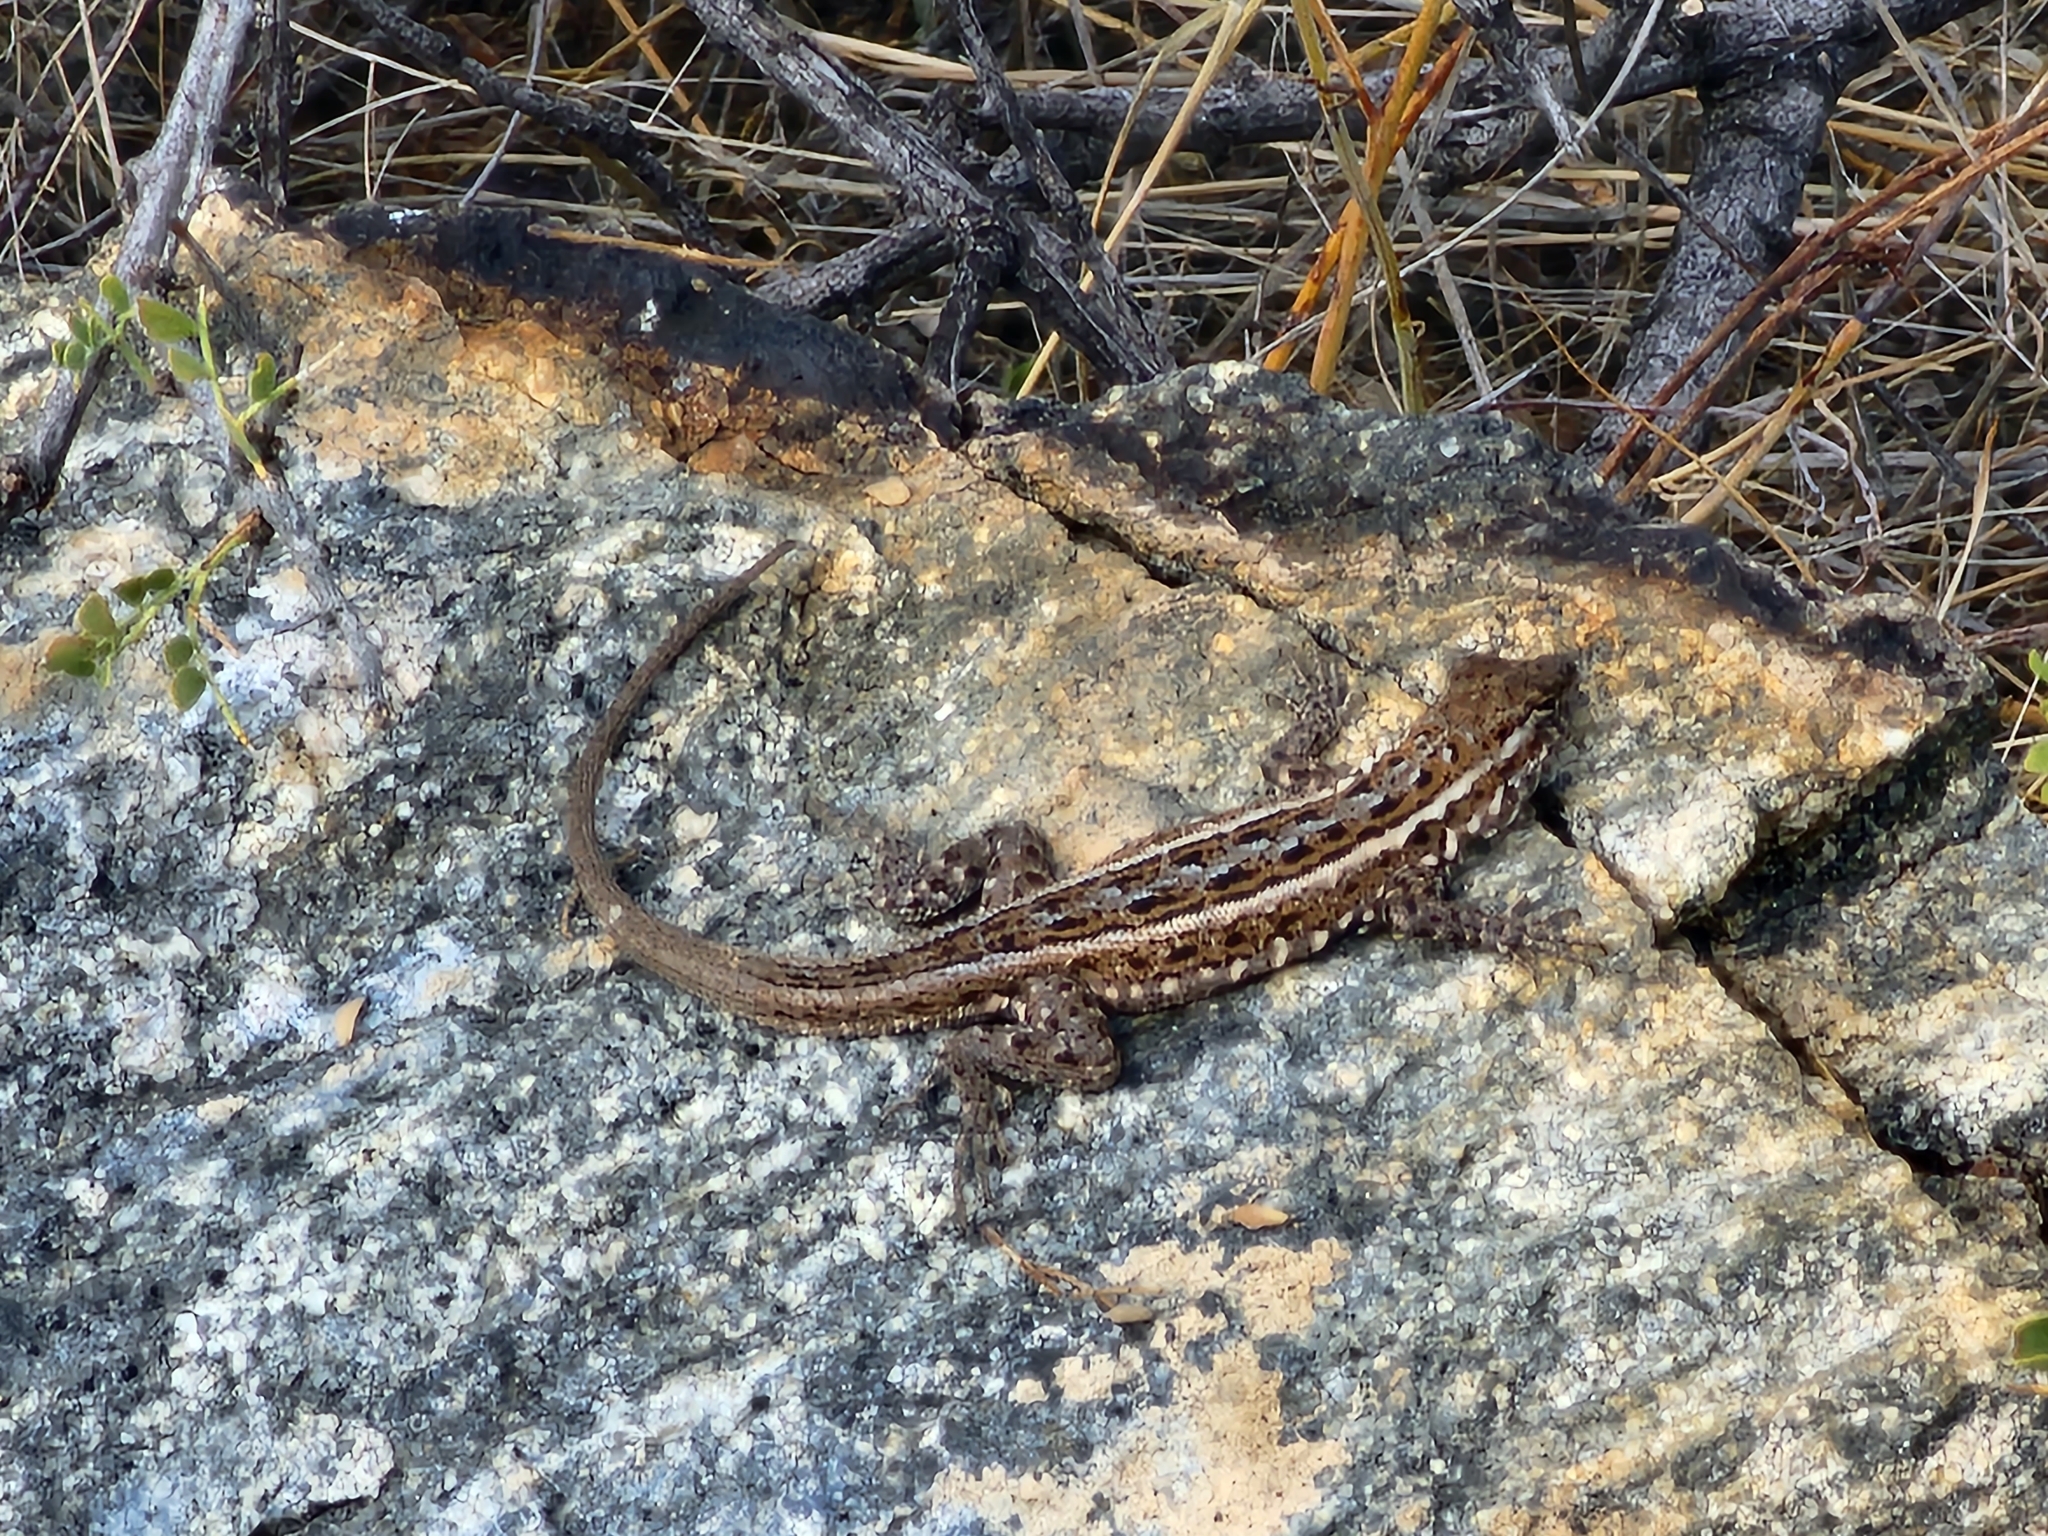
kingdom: Animalia
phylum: Chordata
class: Squamata
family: Phrynosomatidae
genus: Uta
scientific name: Uta stansburiana
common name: Side-blotched lizard
